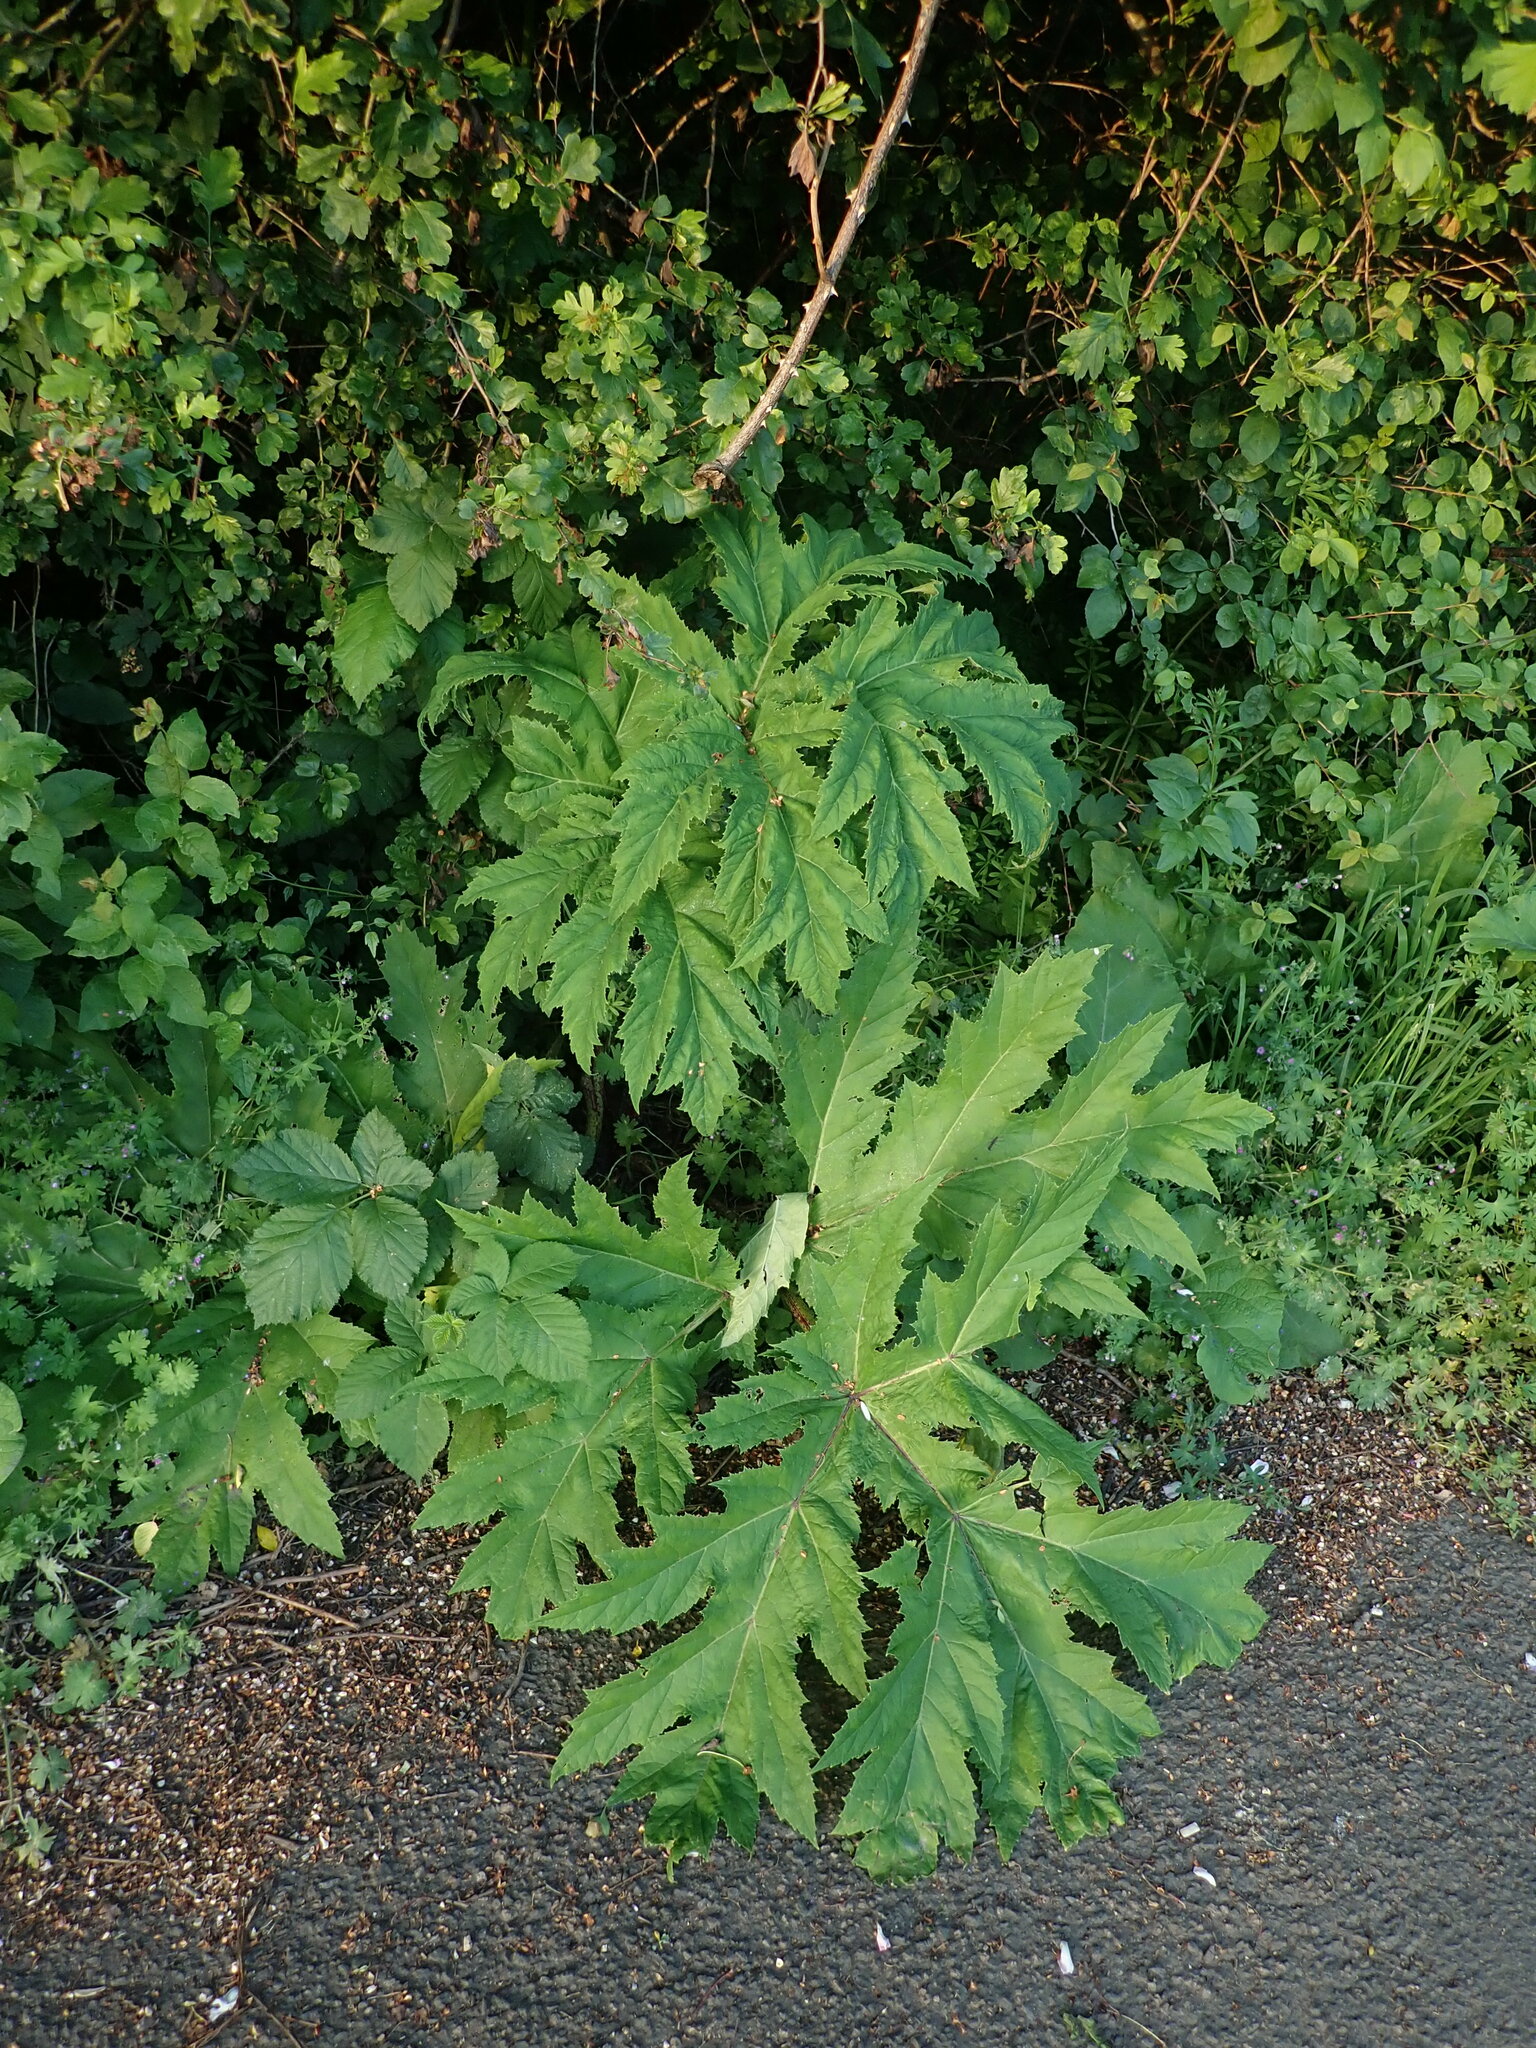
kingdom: Plantae
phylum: Tracheophyta
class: Magnoliopsida
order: Apiales
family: Apiaceae
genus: Heracleum
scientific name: Heracleum mantegazzianum
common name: Giant hogweed
